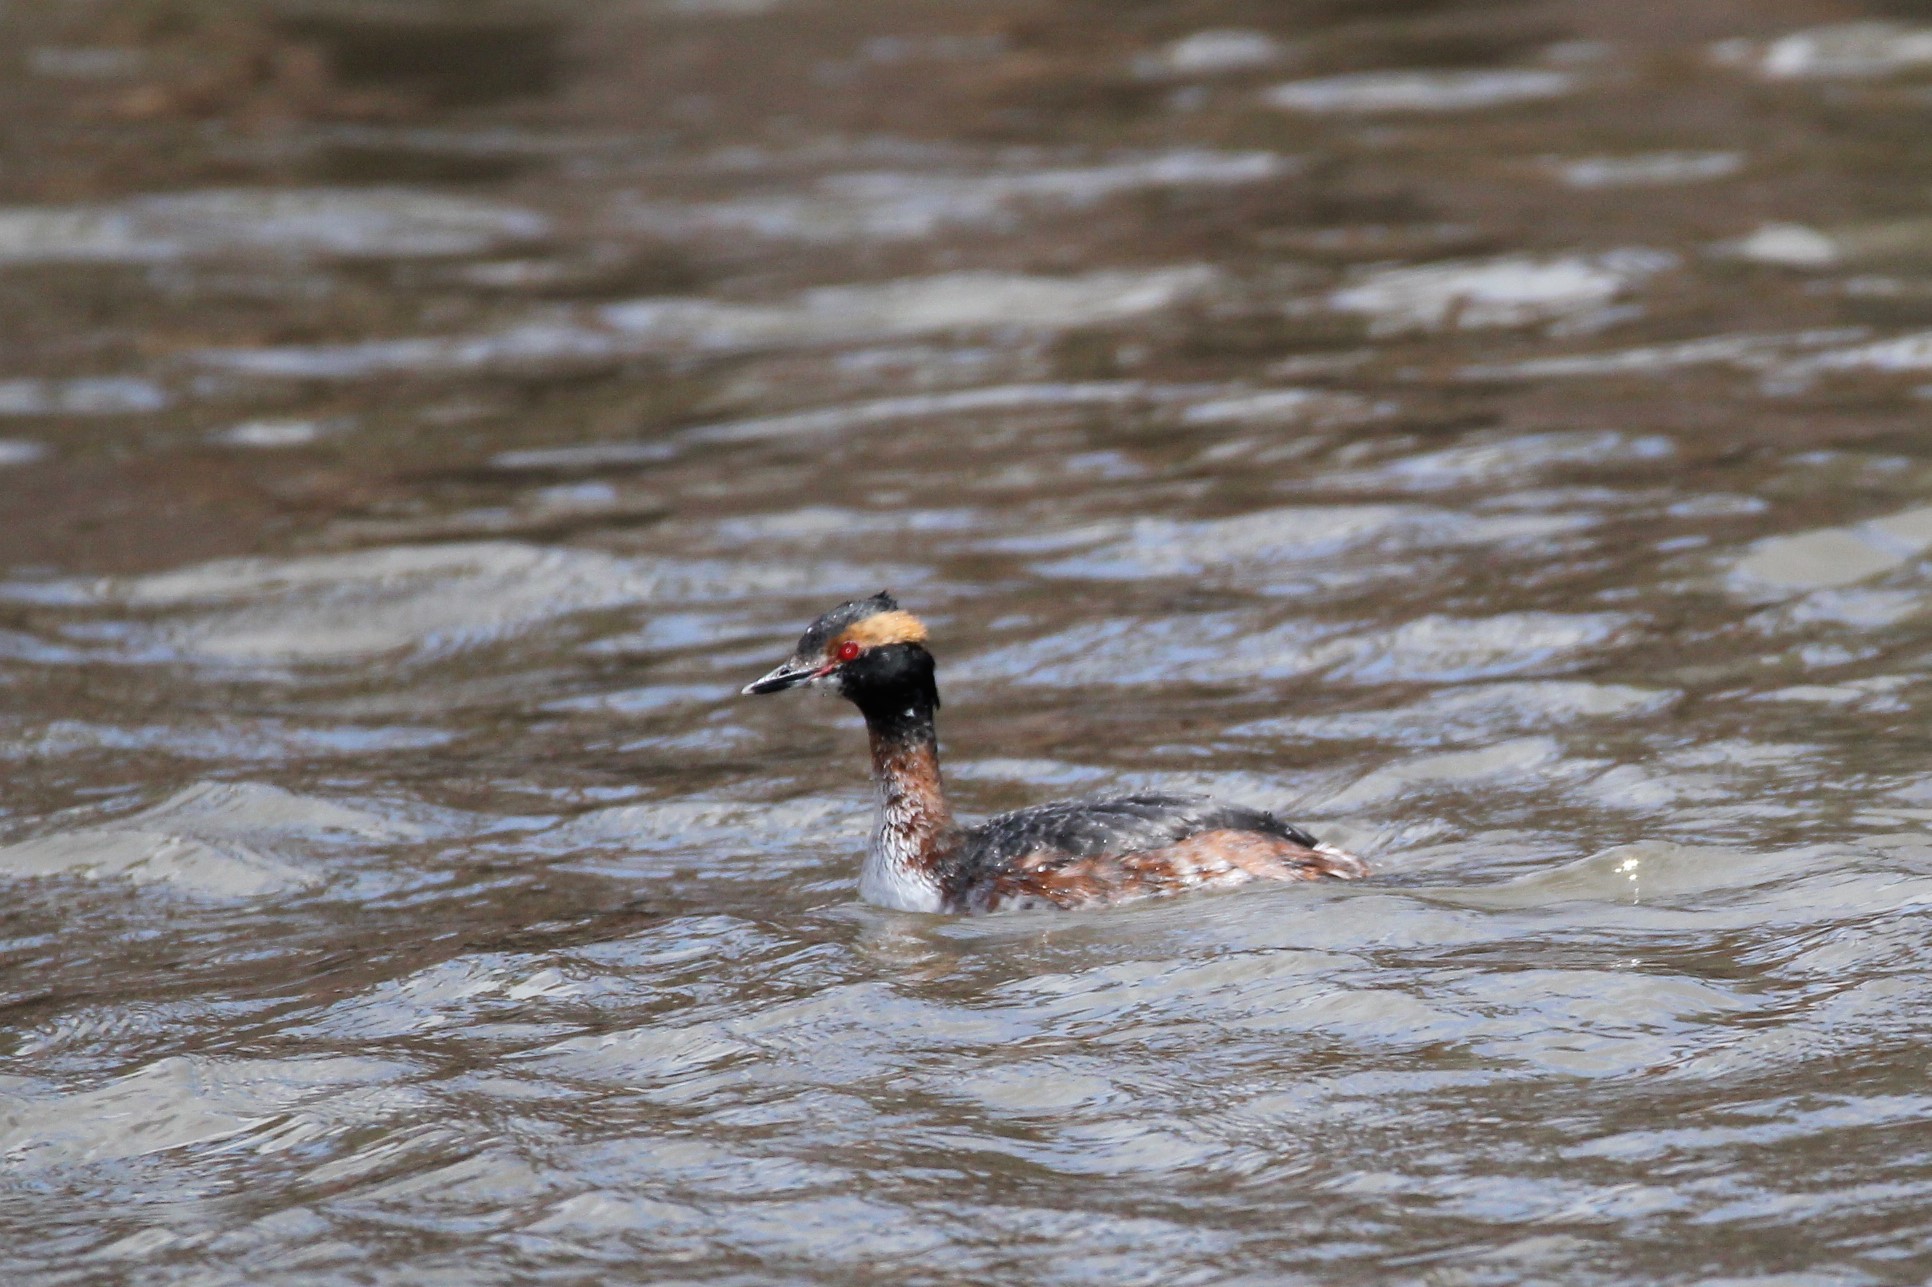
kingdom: Animalia
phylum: Chordata
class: Aves
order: Podicipediformes
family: Podicipedidae
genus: Podiceps
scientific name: Podiceps auritus
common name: Horned grebe
